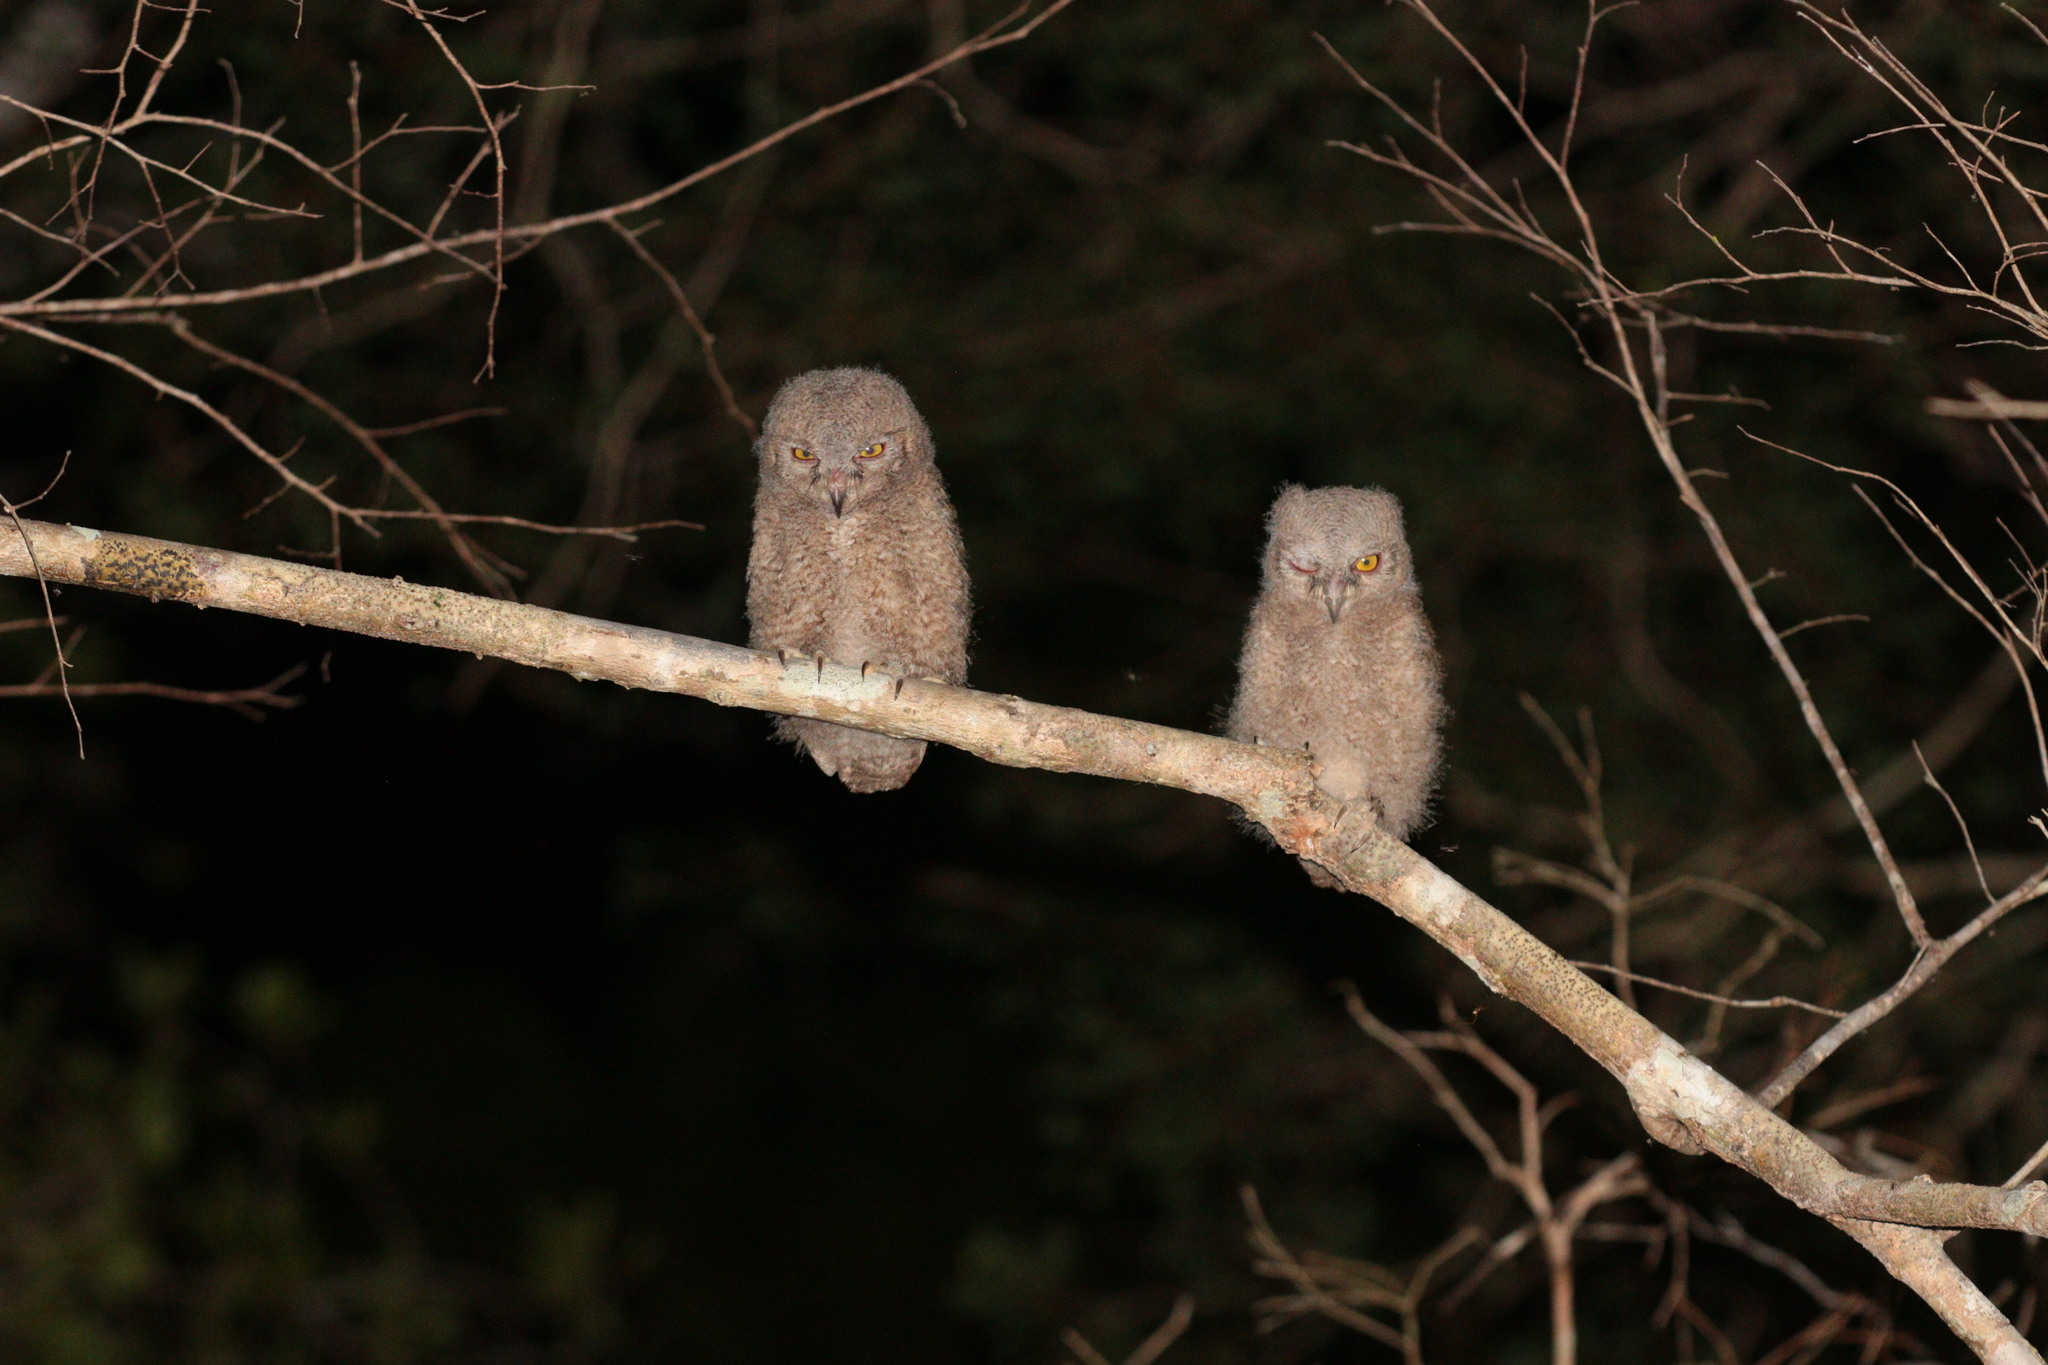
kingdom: Animalia
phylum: Chordata
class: Aves
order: Strigiformes
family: Strigidae
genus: Otus
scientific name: Otus rutilus
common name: Rainforest scops owl
